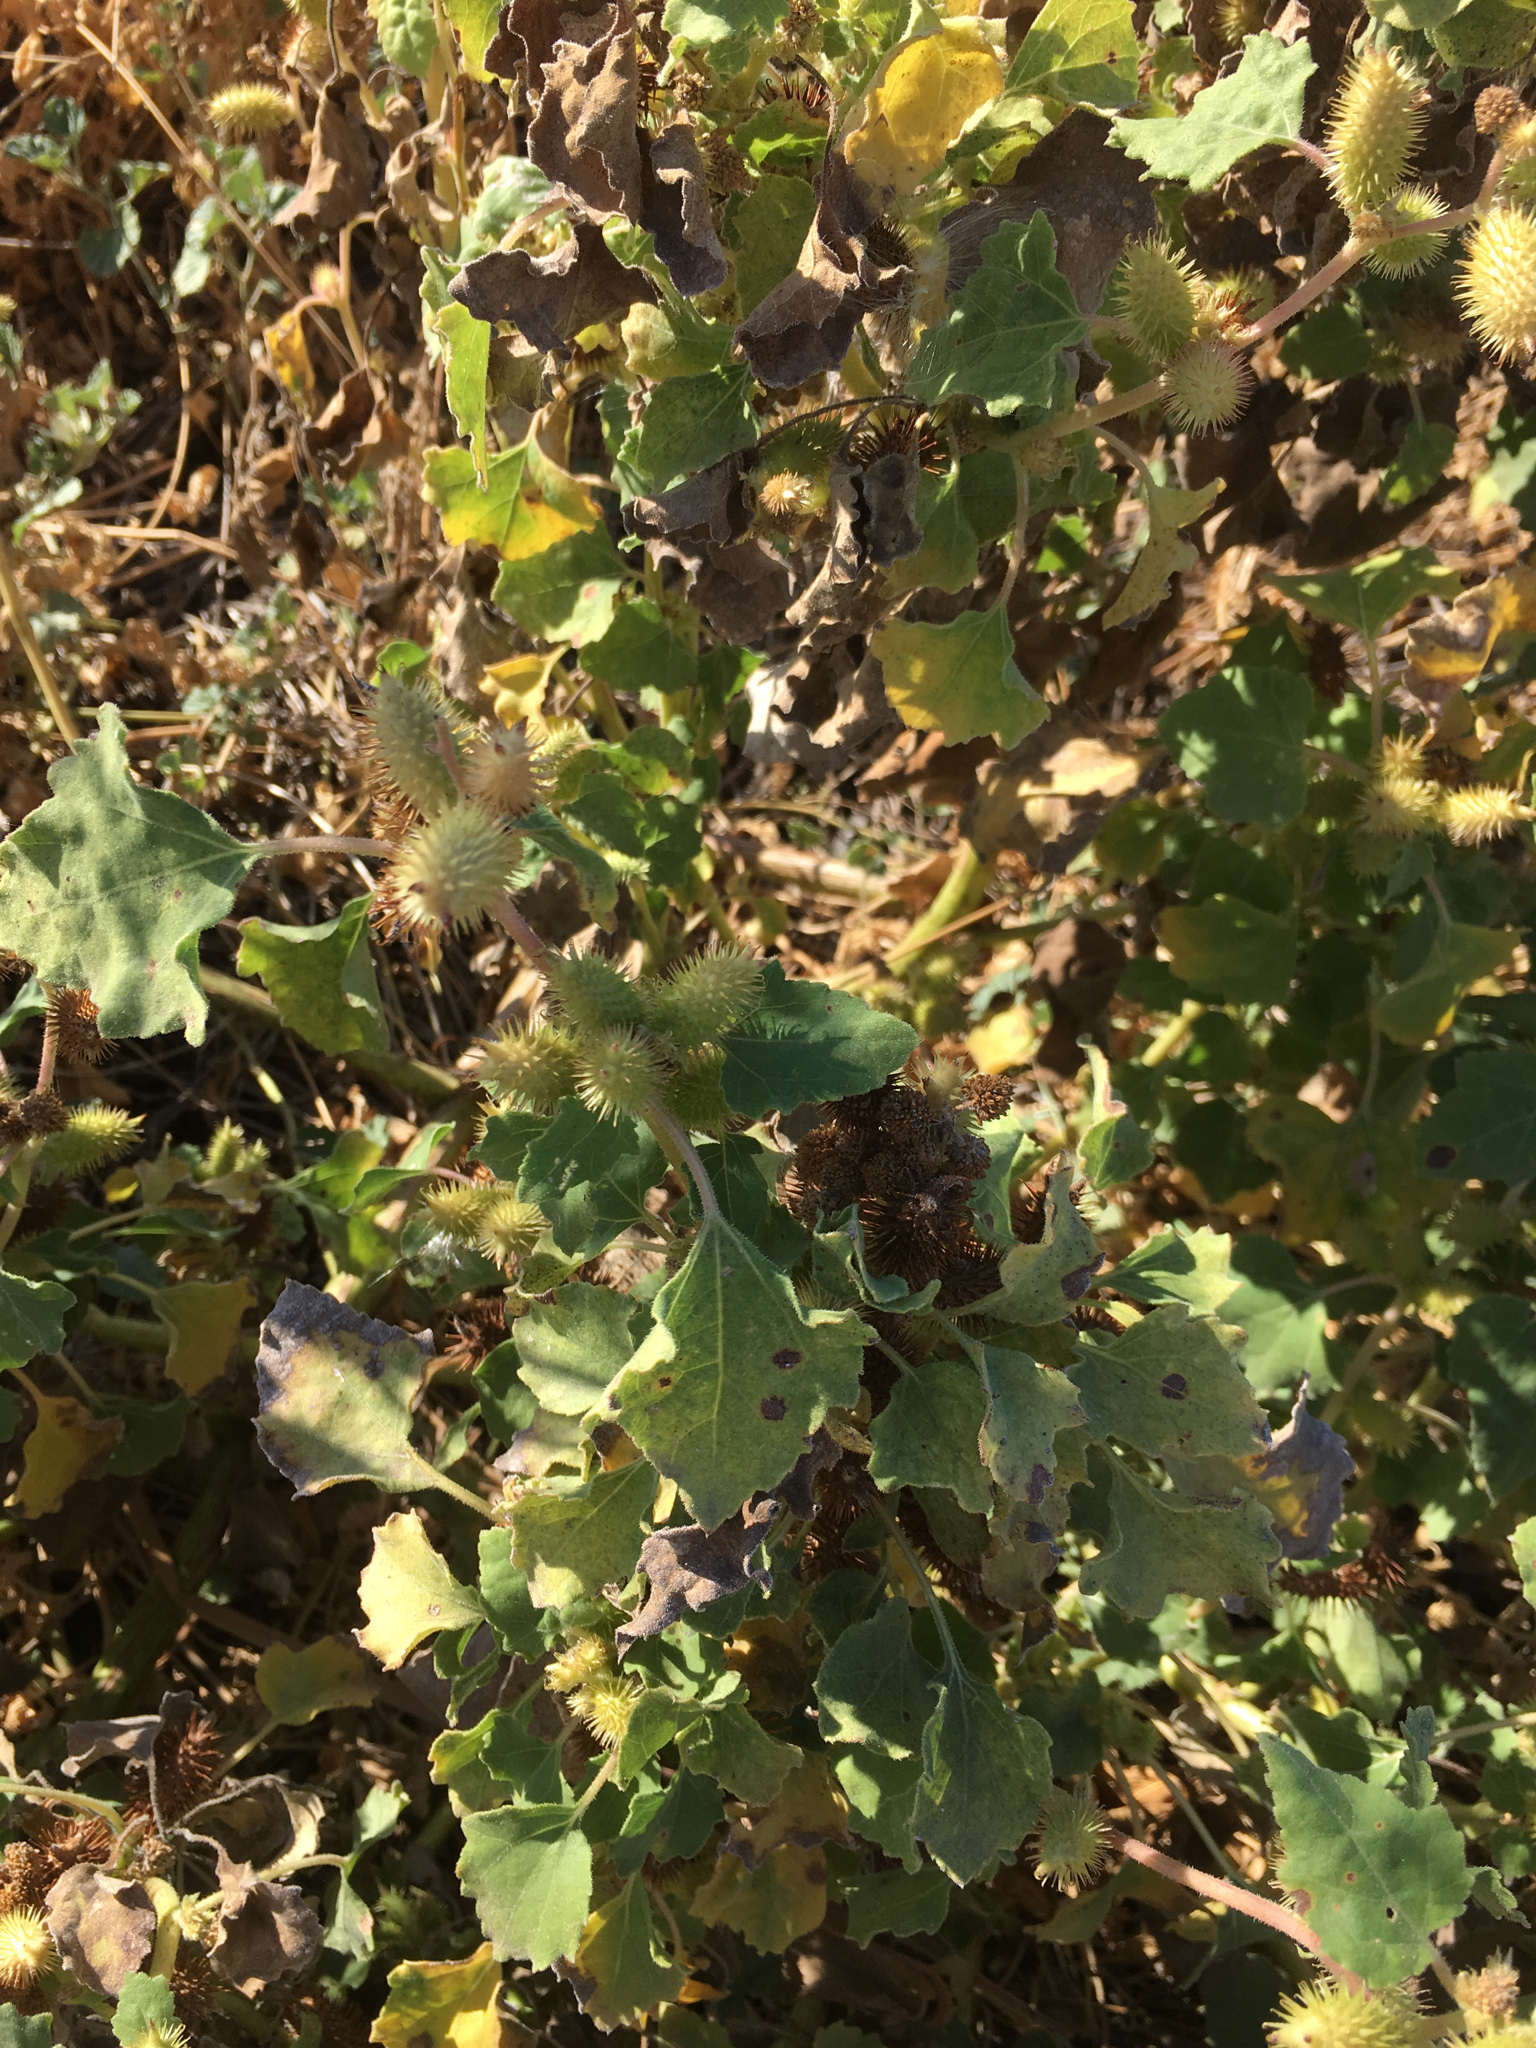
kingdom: Plantae
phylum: Tracheophyta
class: Magnoliopsida
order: Asterales
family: Asteraceae
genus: Xanthium
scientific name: Xanthium strumarium
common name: Rough cocklebur
